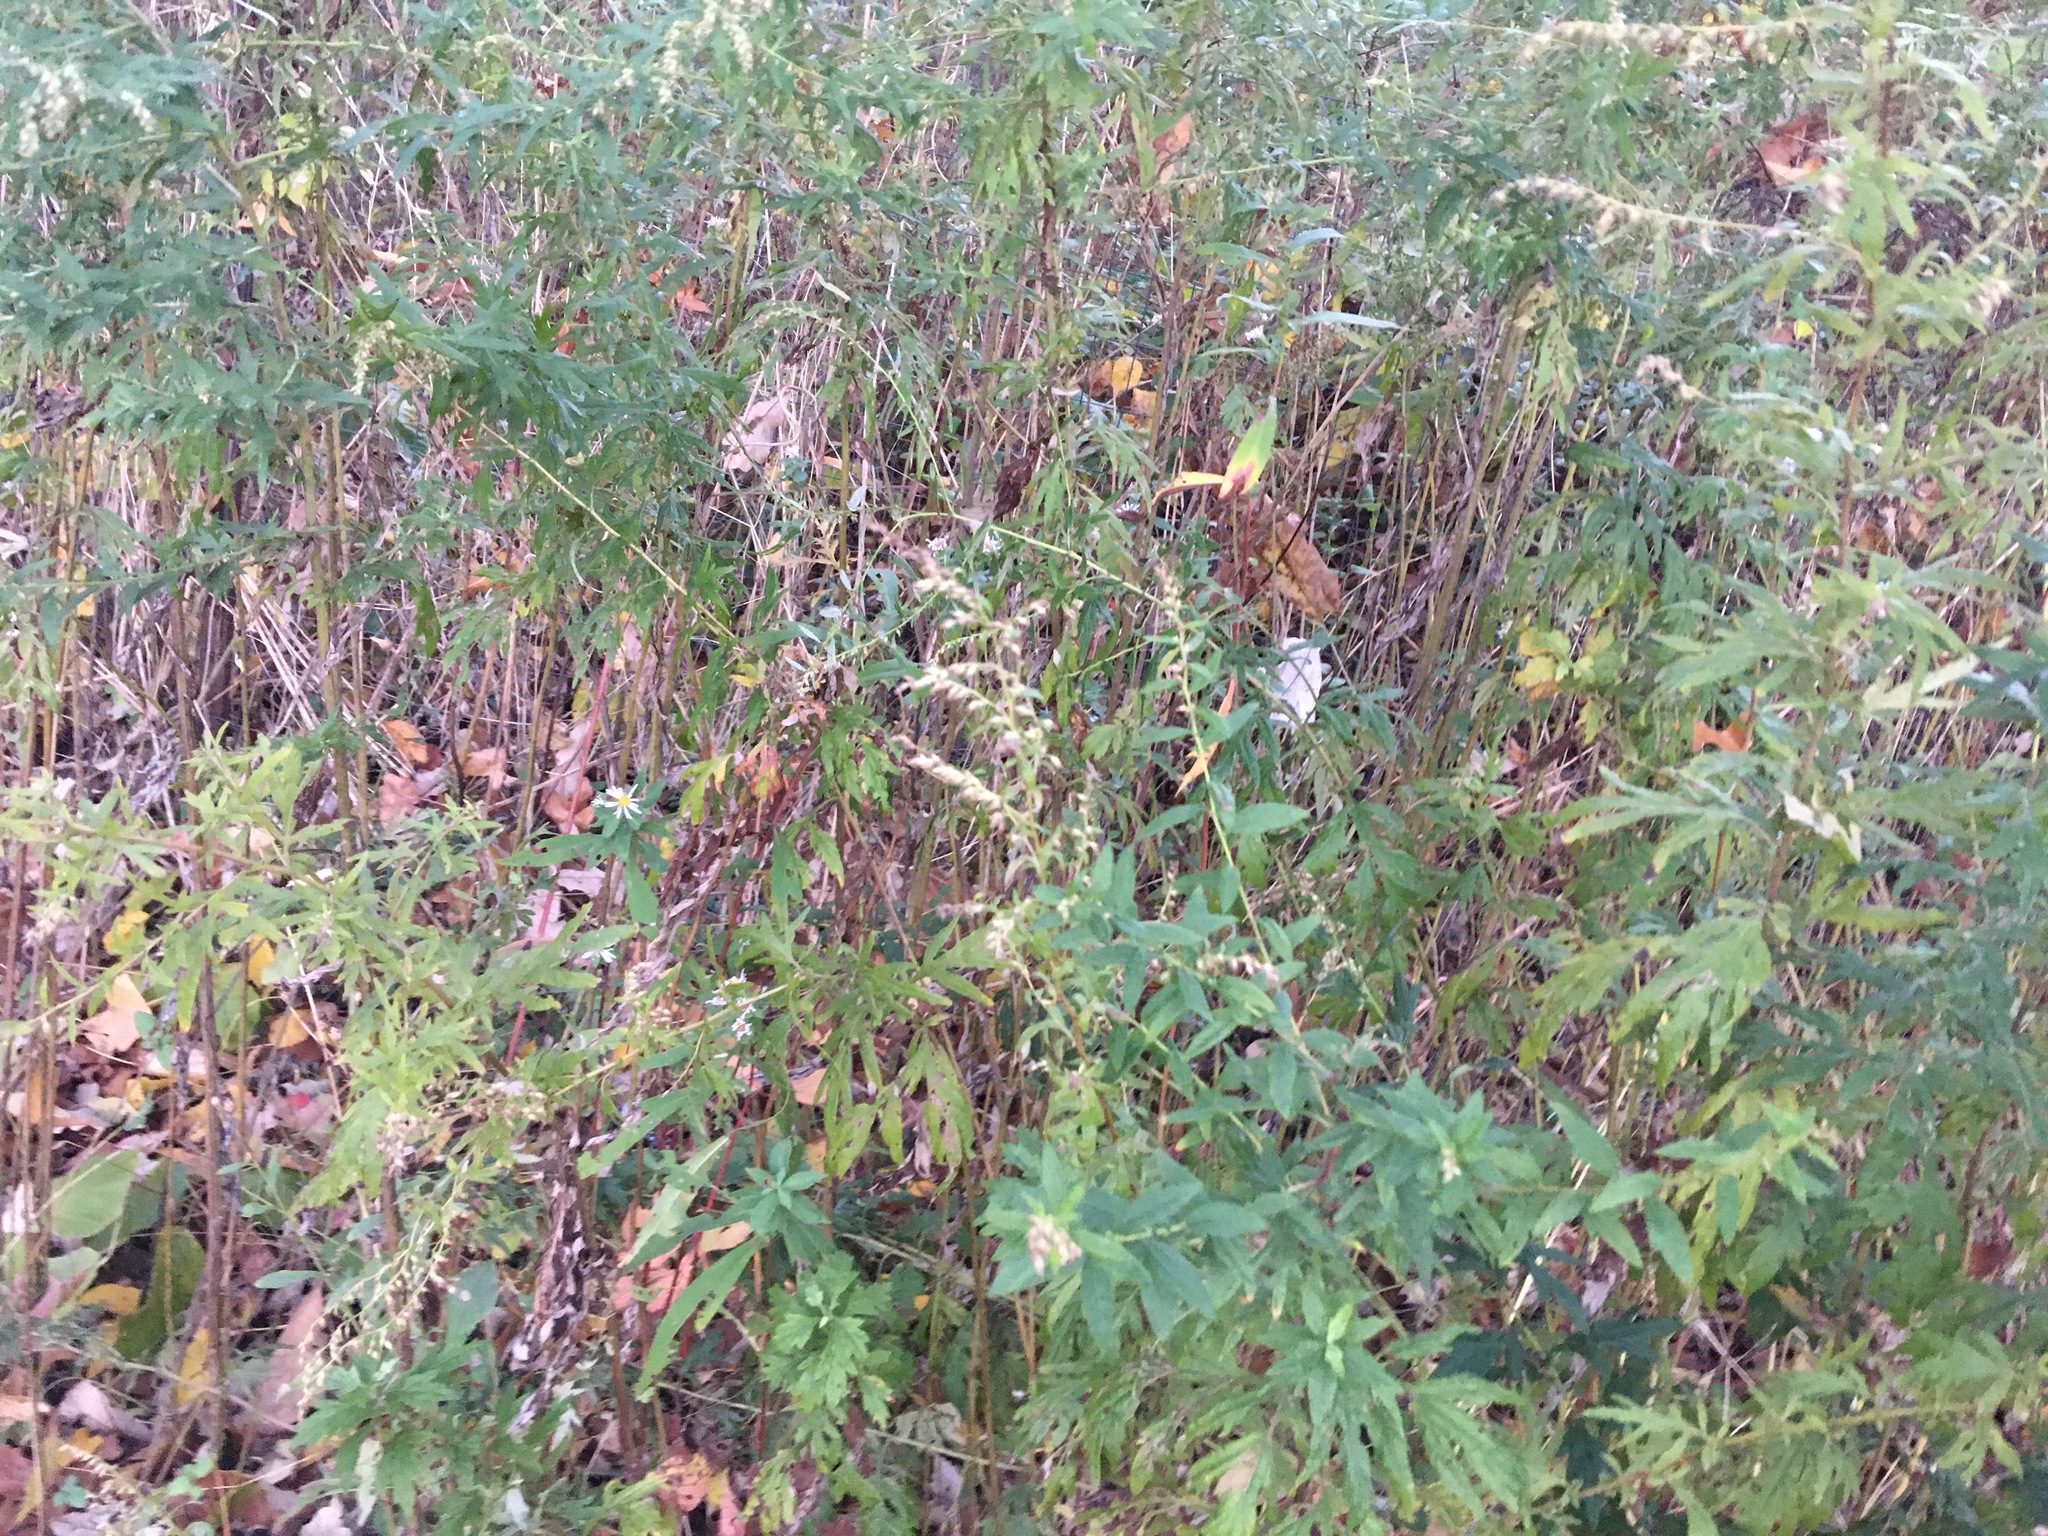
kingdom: Plantae
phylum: Tracheophyta
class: Magnoliopsida
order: Asterales
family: Asteraceae
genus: Artemisia
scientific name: Artemisia vulgaris
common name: Mugwort
